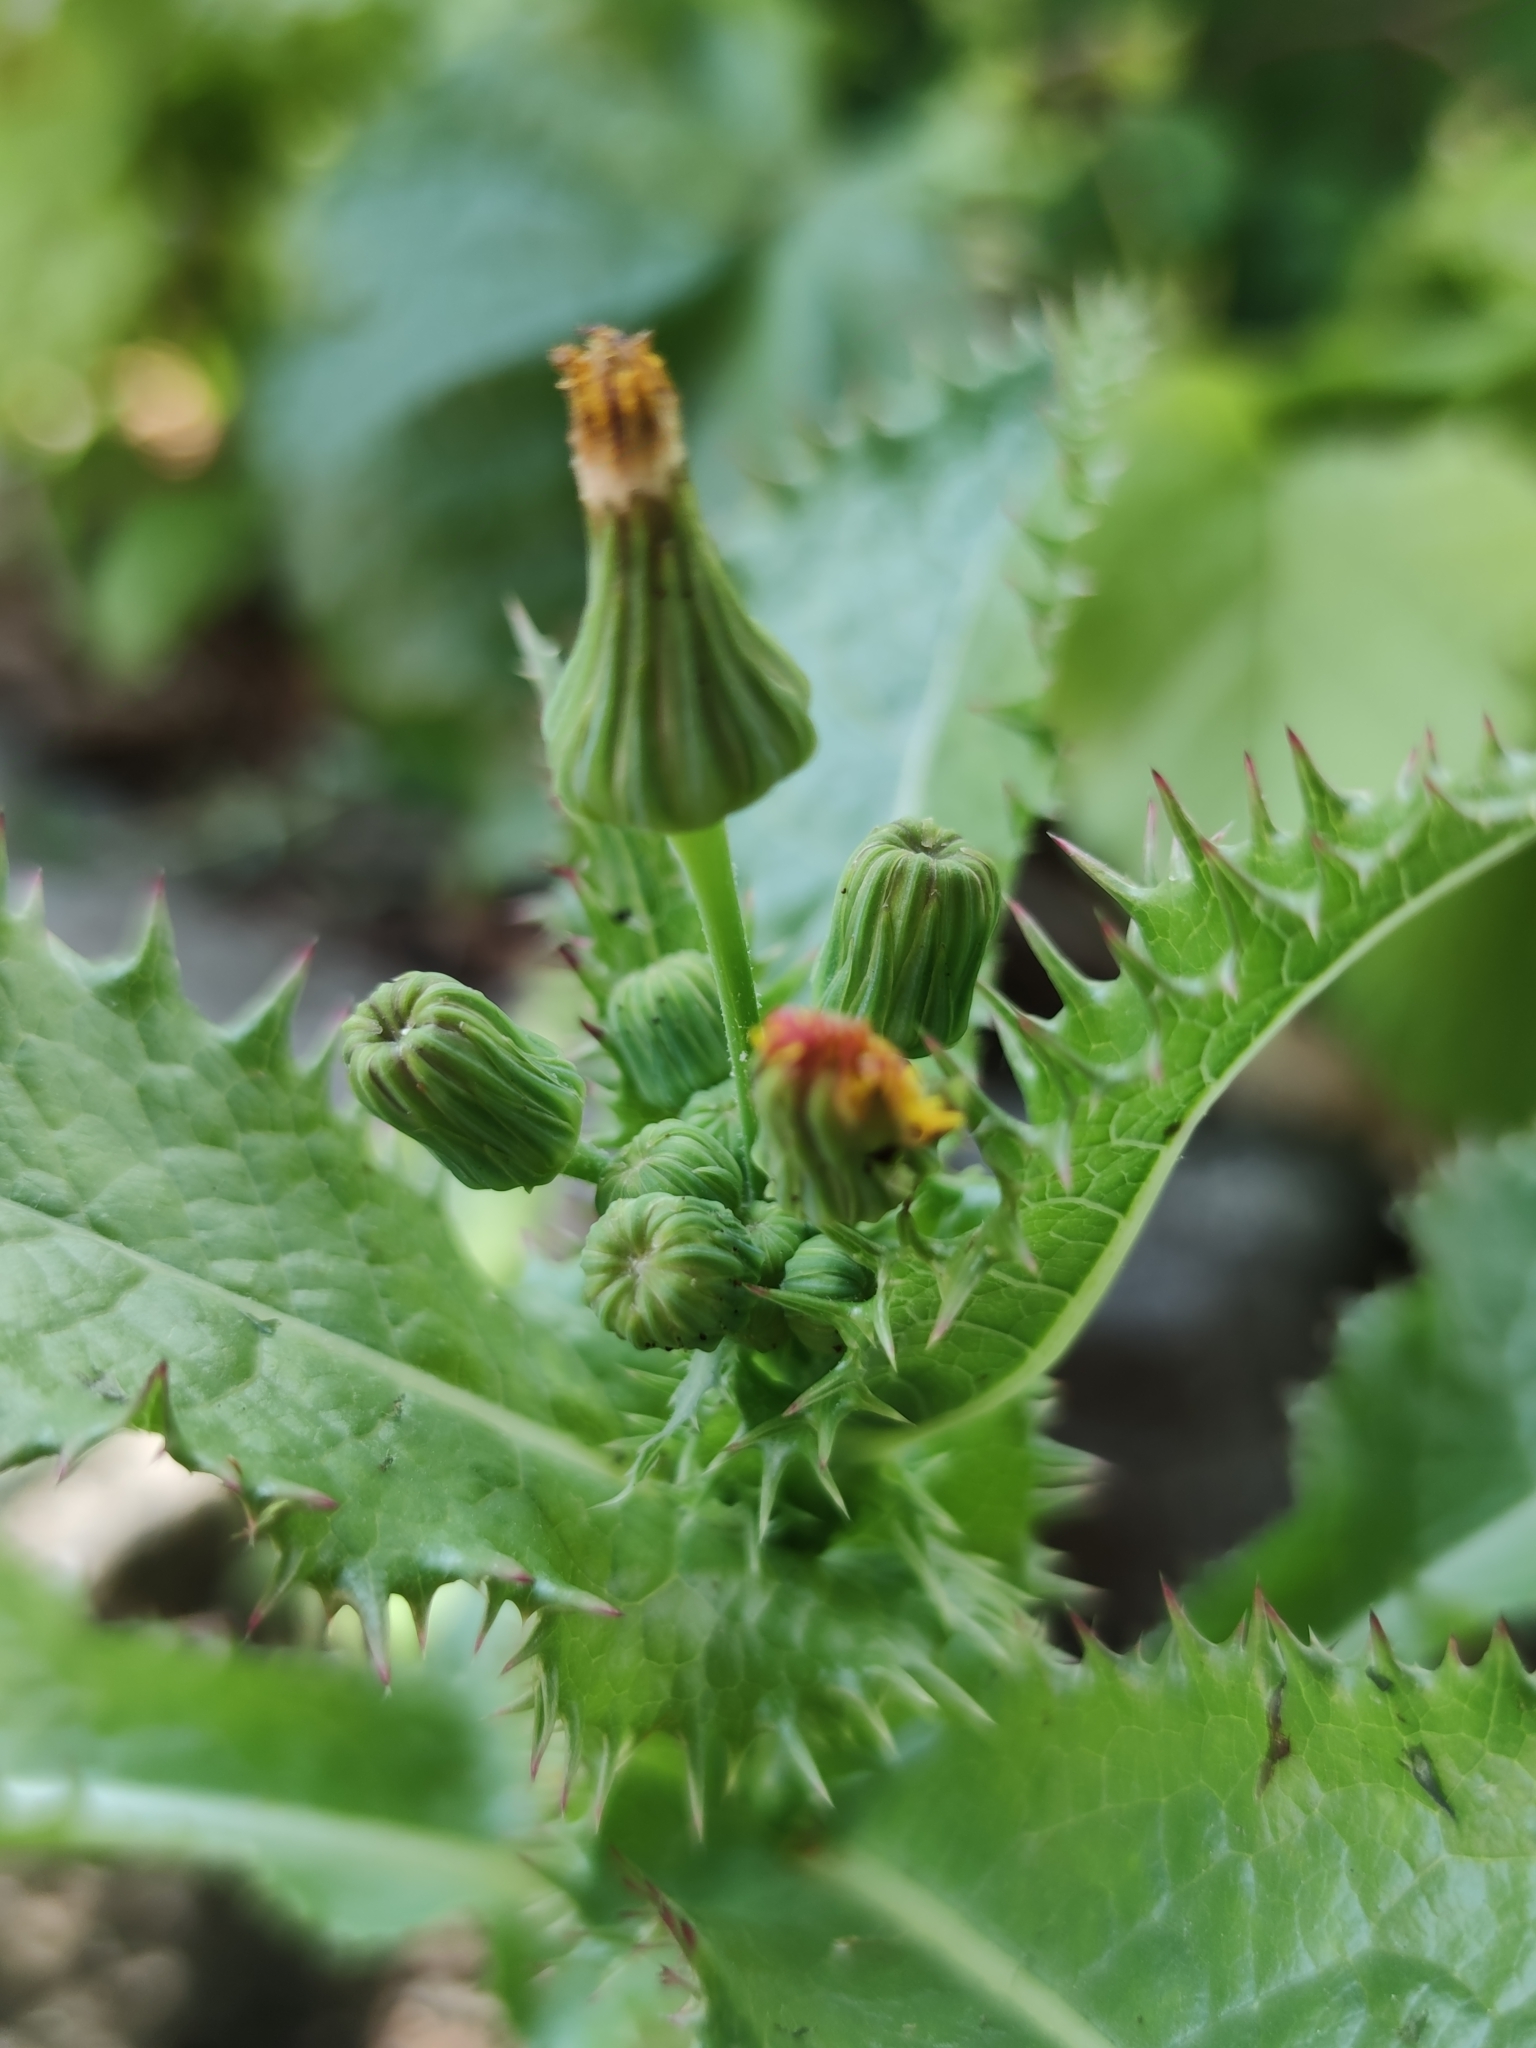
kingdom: Plantae
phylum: Tracheophyta
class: Magnoliopsida
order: Asterales
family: Asteraceae
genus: Sonchus
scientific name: Sonchus asper
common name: Prickly sow-thistle
